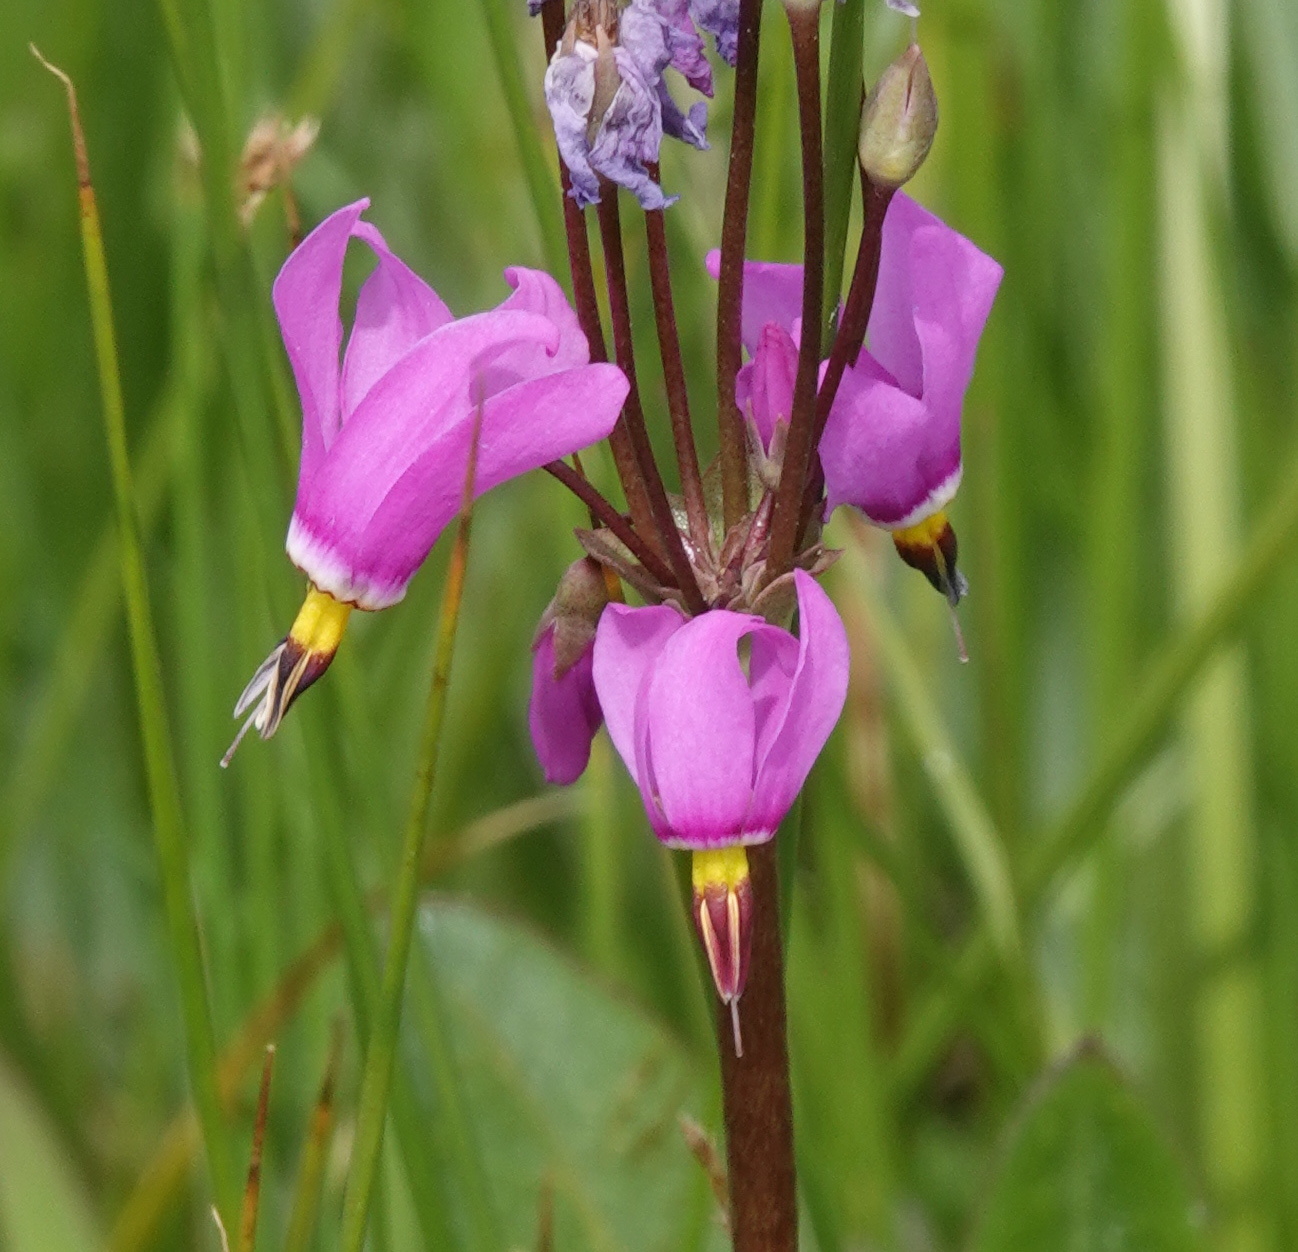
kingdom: Plantae
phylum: Tracheophyta
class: Magnoliopsida
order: Ericales
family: Primulaceae
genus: Dodecatheon
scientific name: Dodecatheon pulchellum
